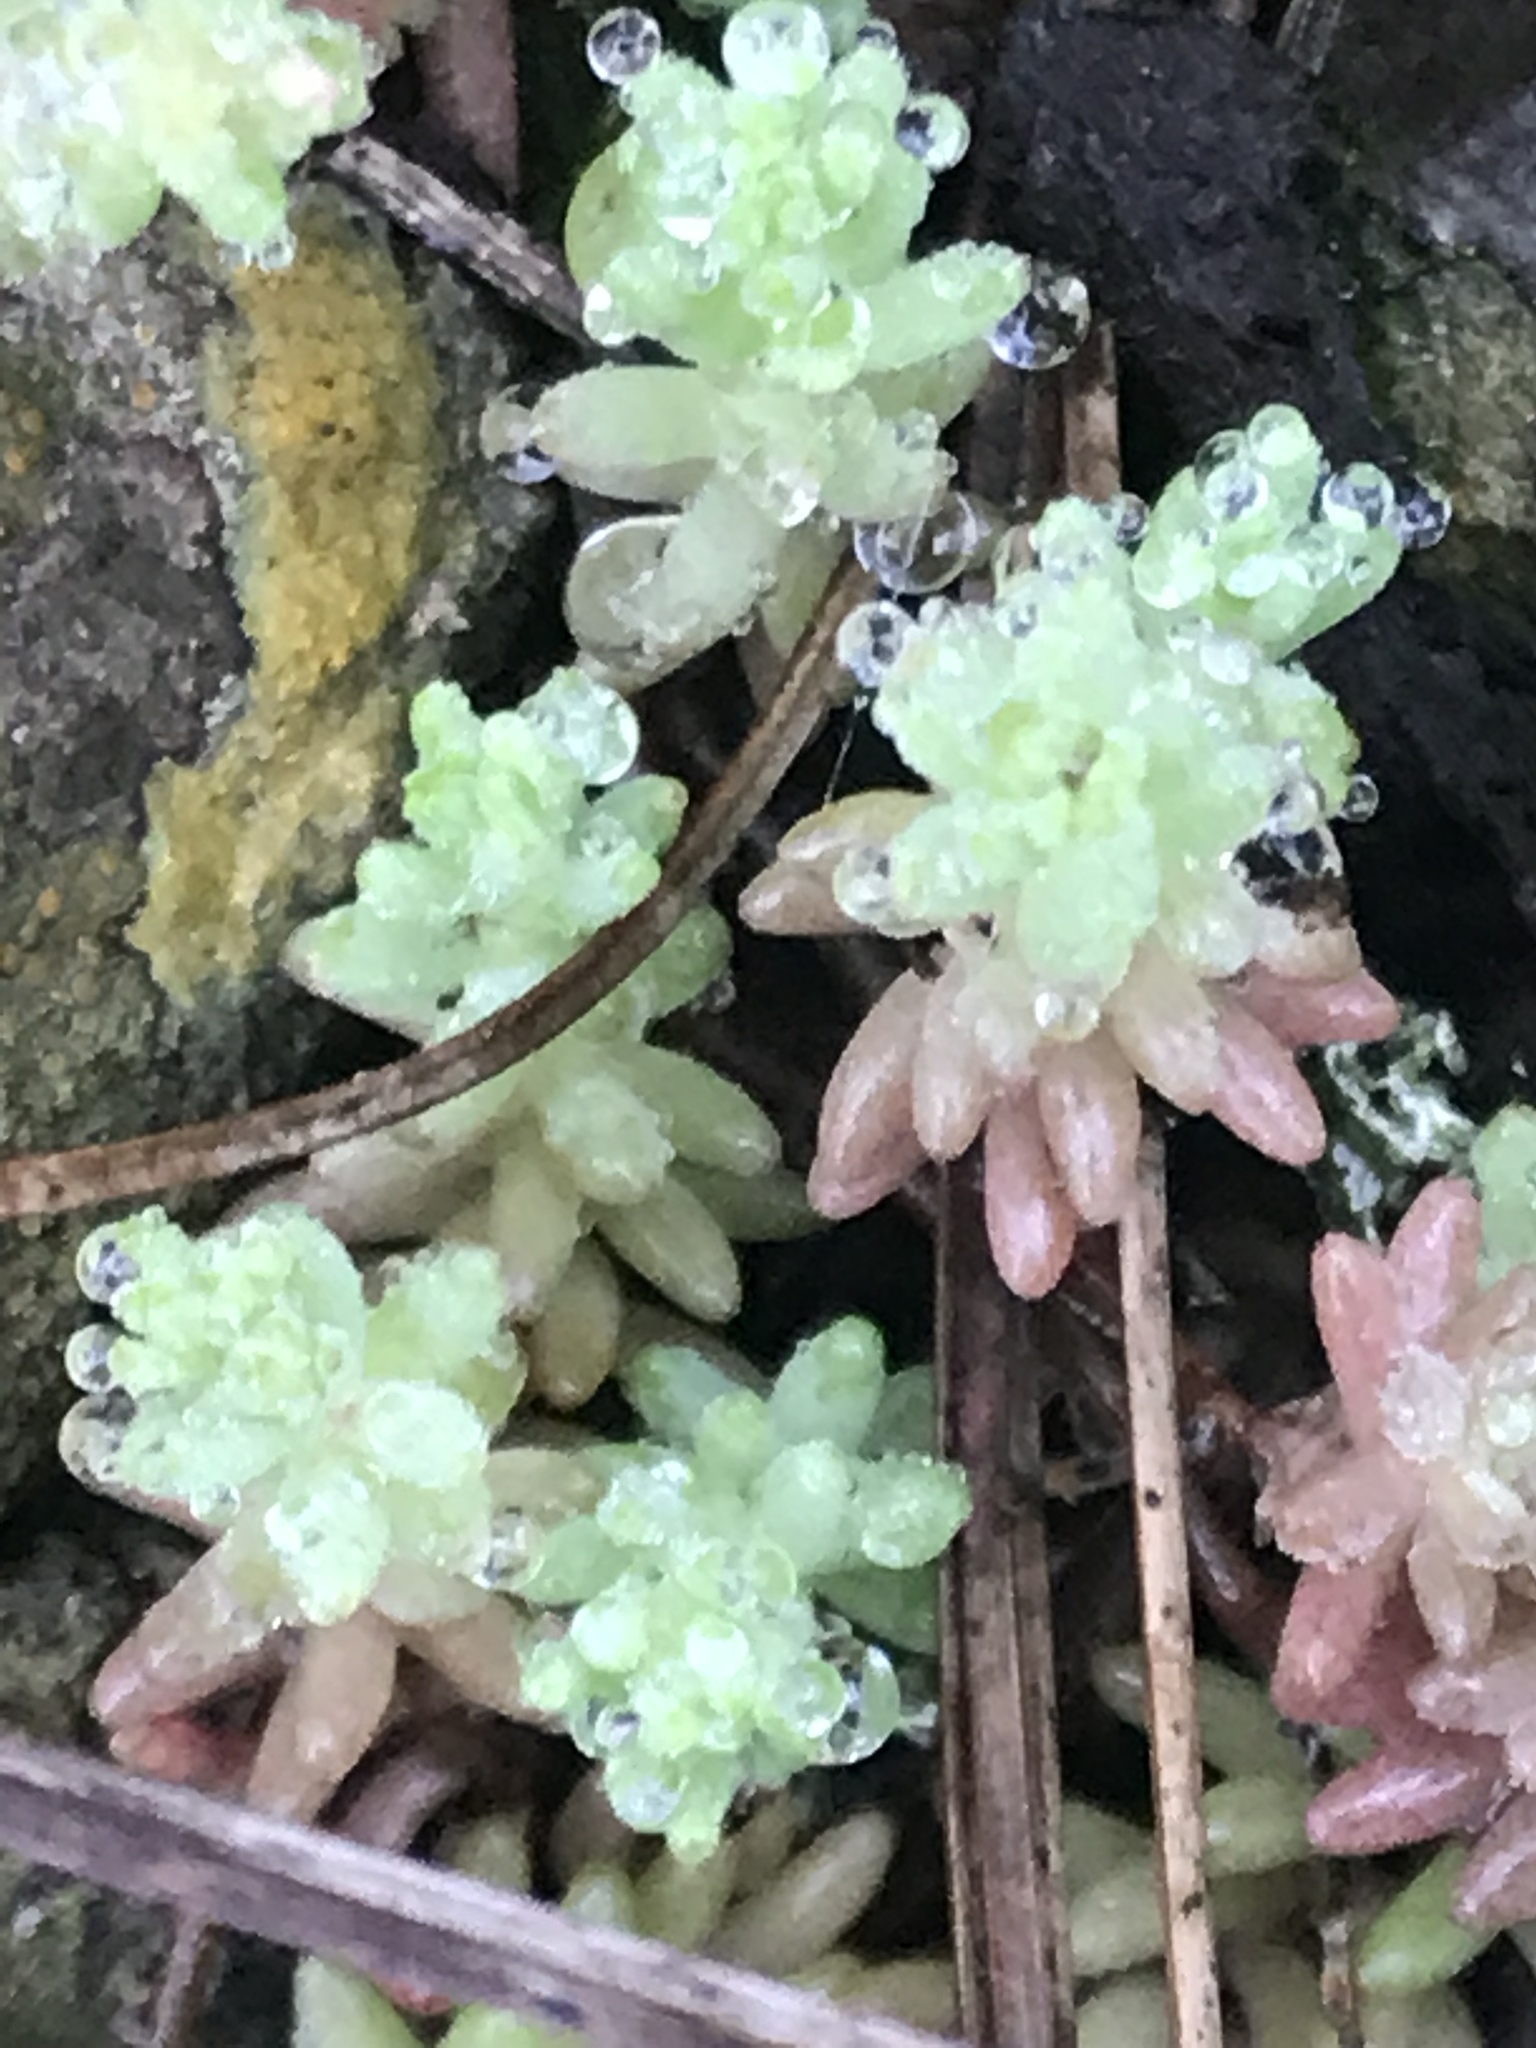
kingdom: Plantae
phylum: Tracheophyta
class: Magnoliopsida
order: Saxifragales
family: Crassulaceae
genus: Sedum
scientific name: Sedum potosinum
